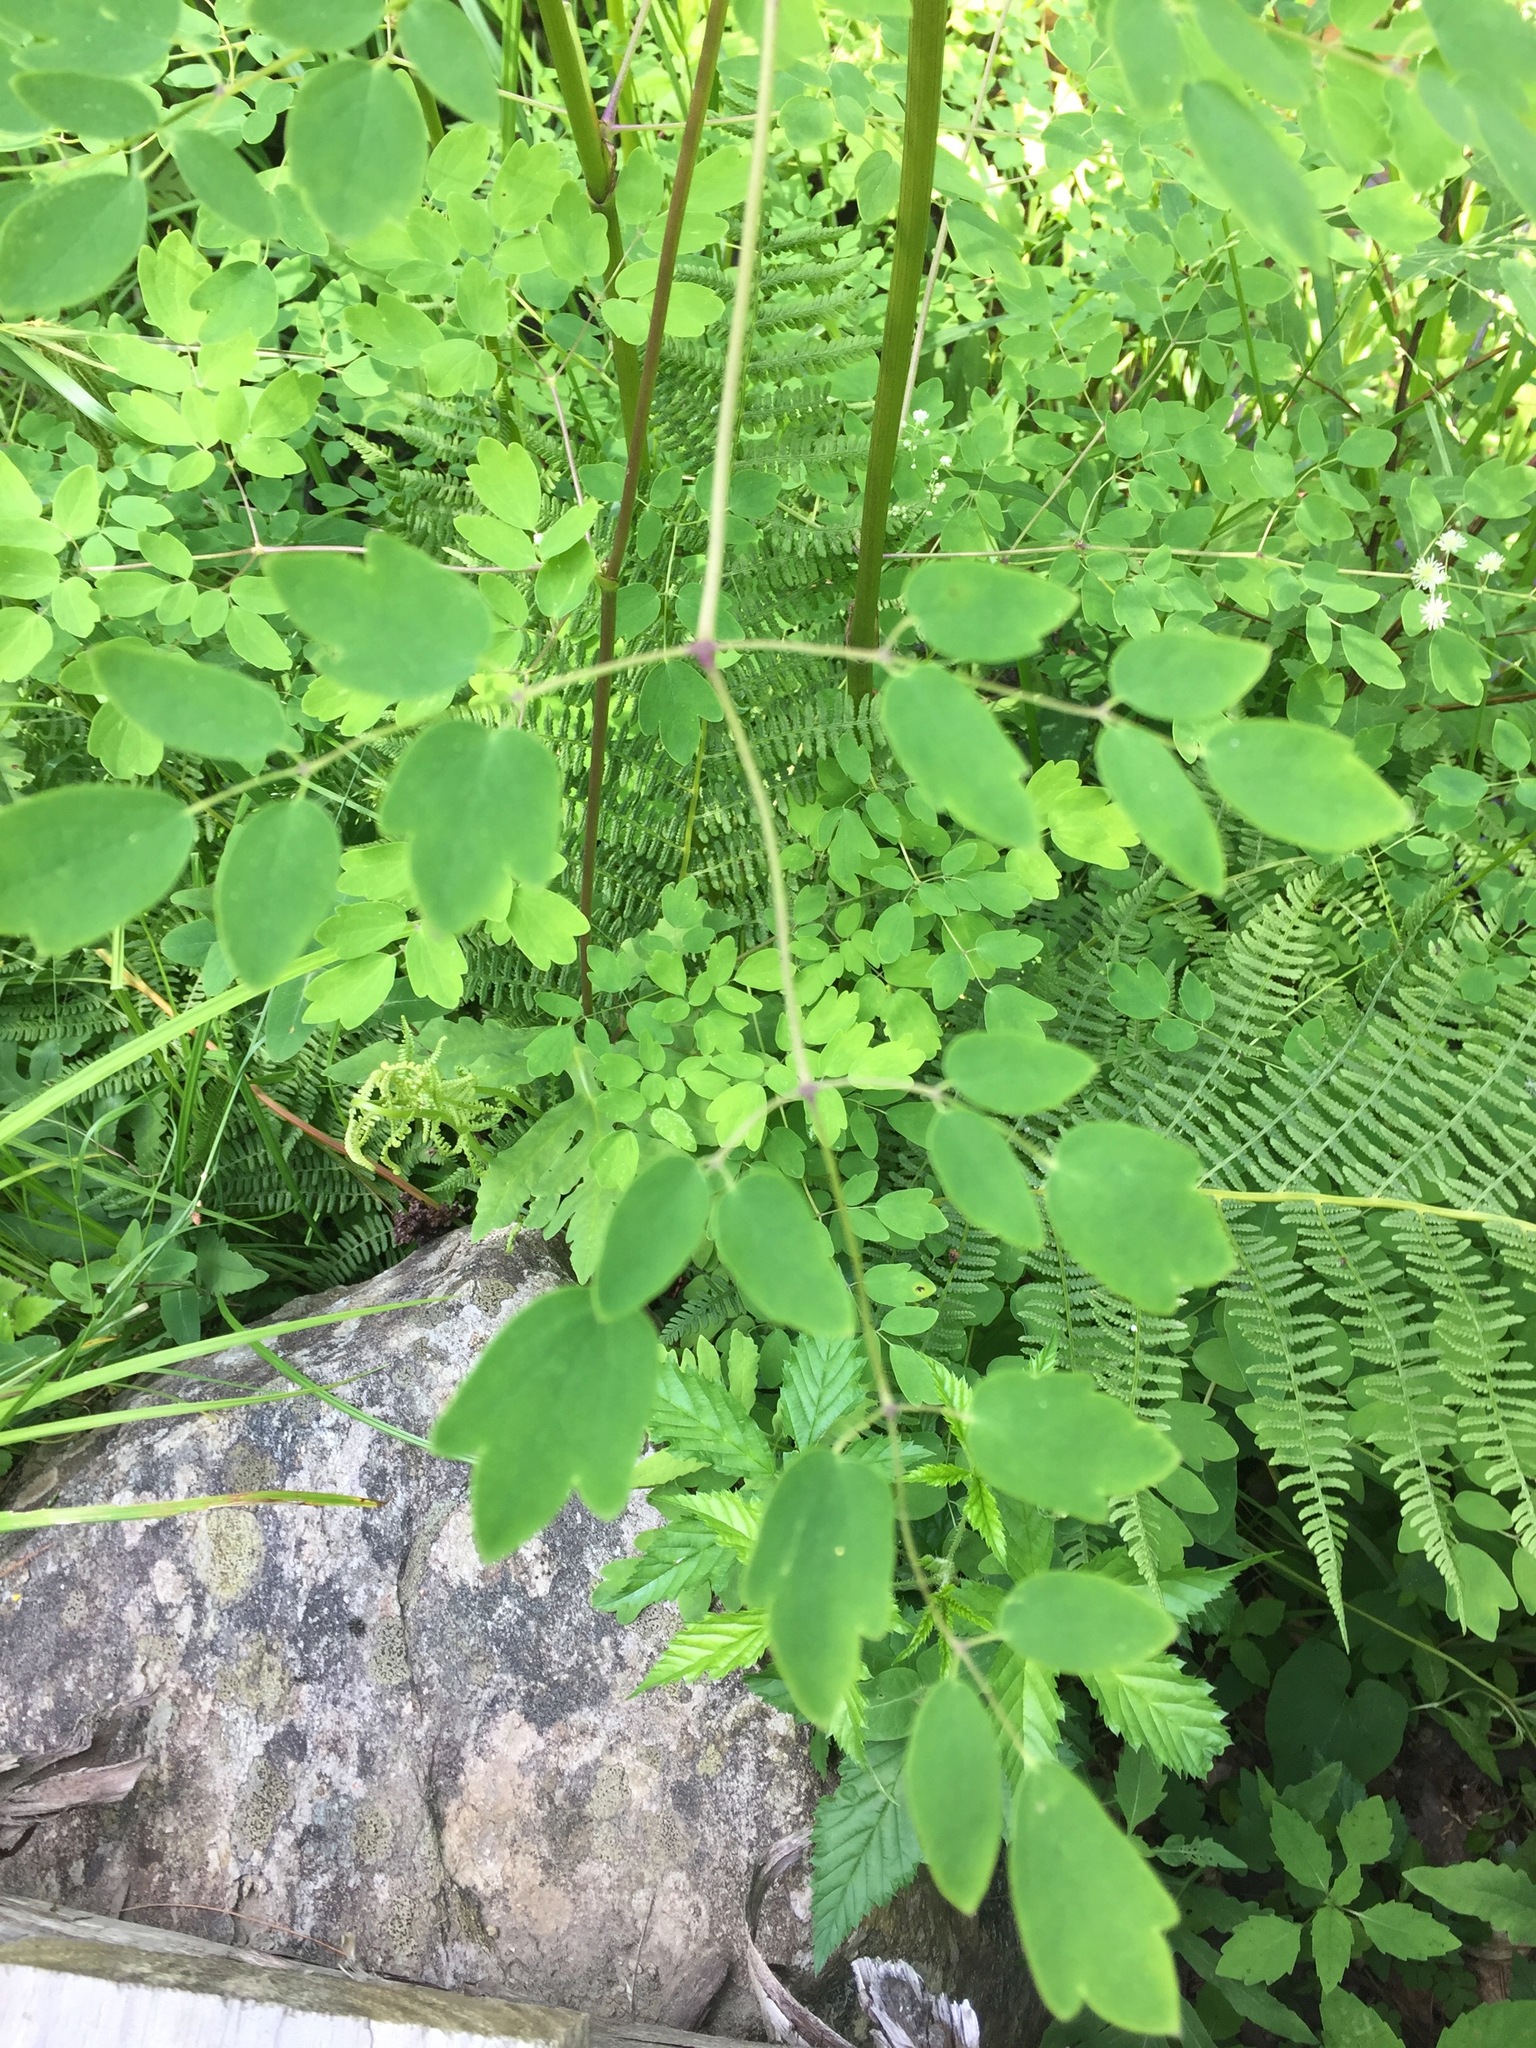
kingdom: Plantae
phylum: Tracheophyta
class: Magnoliopsida
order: Ranunculales
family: Ranunculaceae
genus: Thalictrum
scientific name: Thalictrum pubescens
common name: King-of-the-meadow
